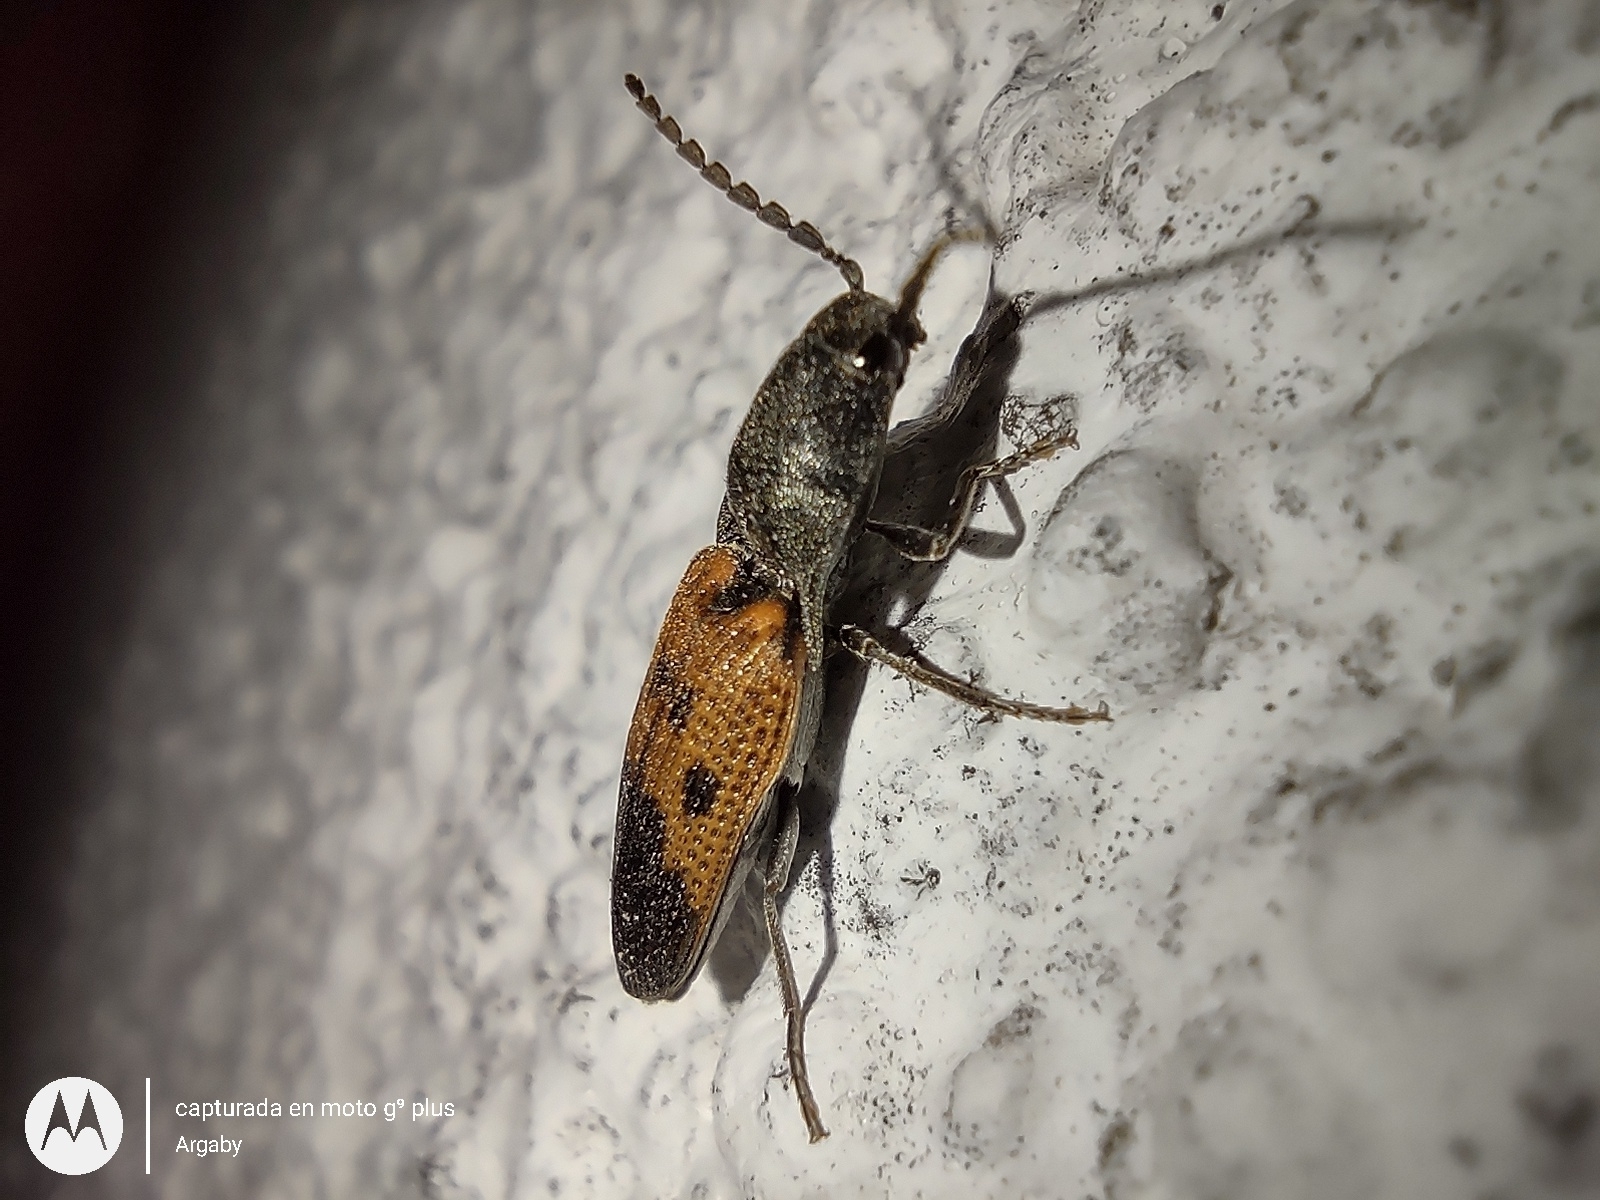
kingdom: Animalia
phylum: Arthropoda
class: Insecta
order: Coleoptera
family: Elateridae
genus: Monocrepidius
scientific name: Monocrepidius
